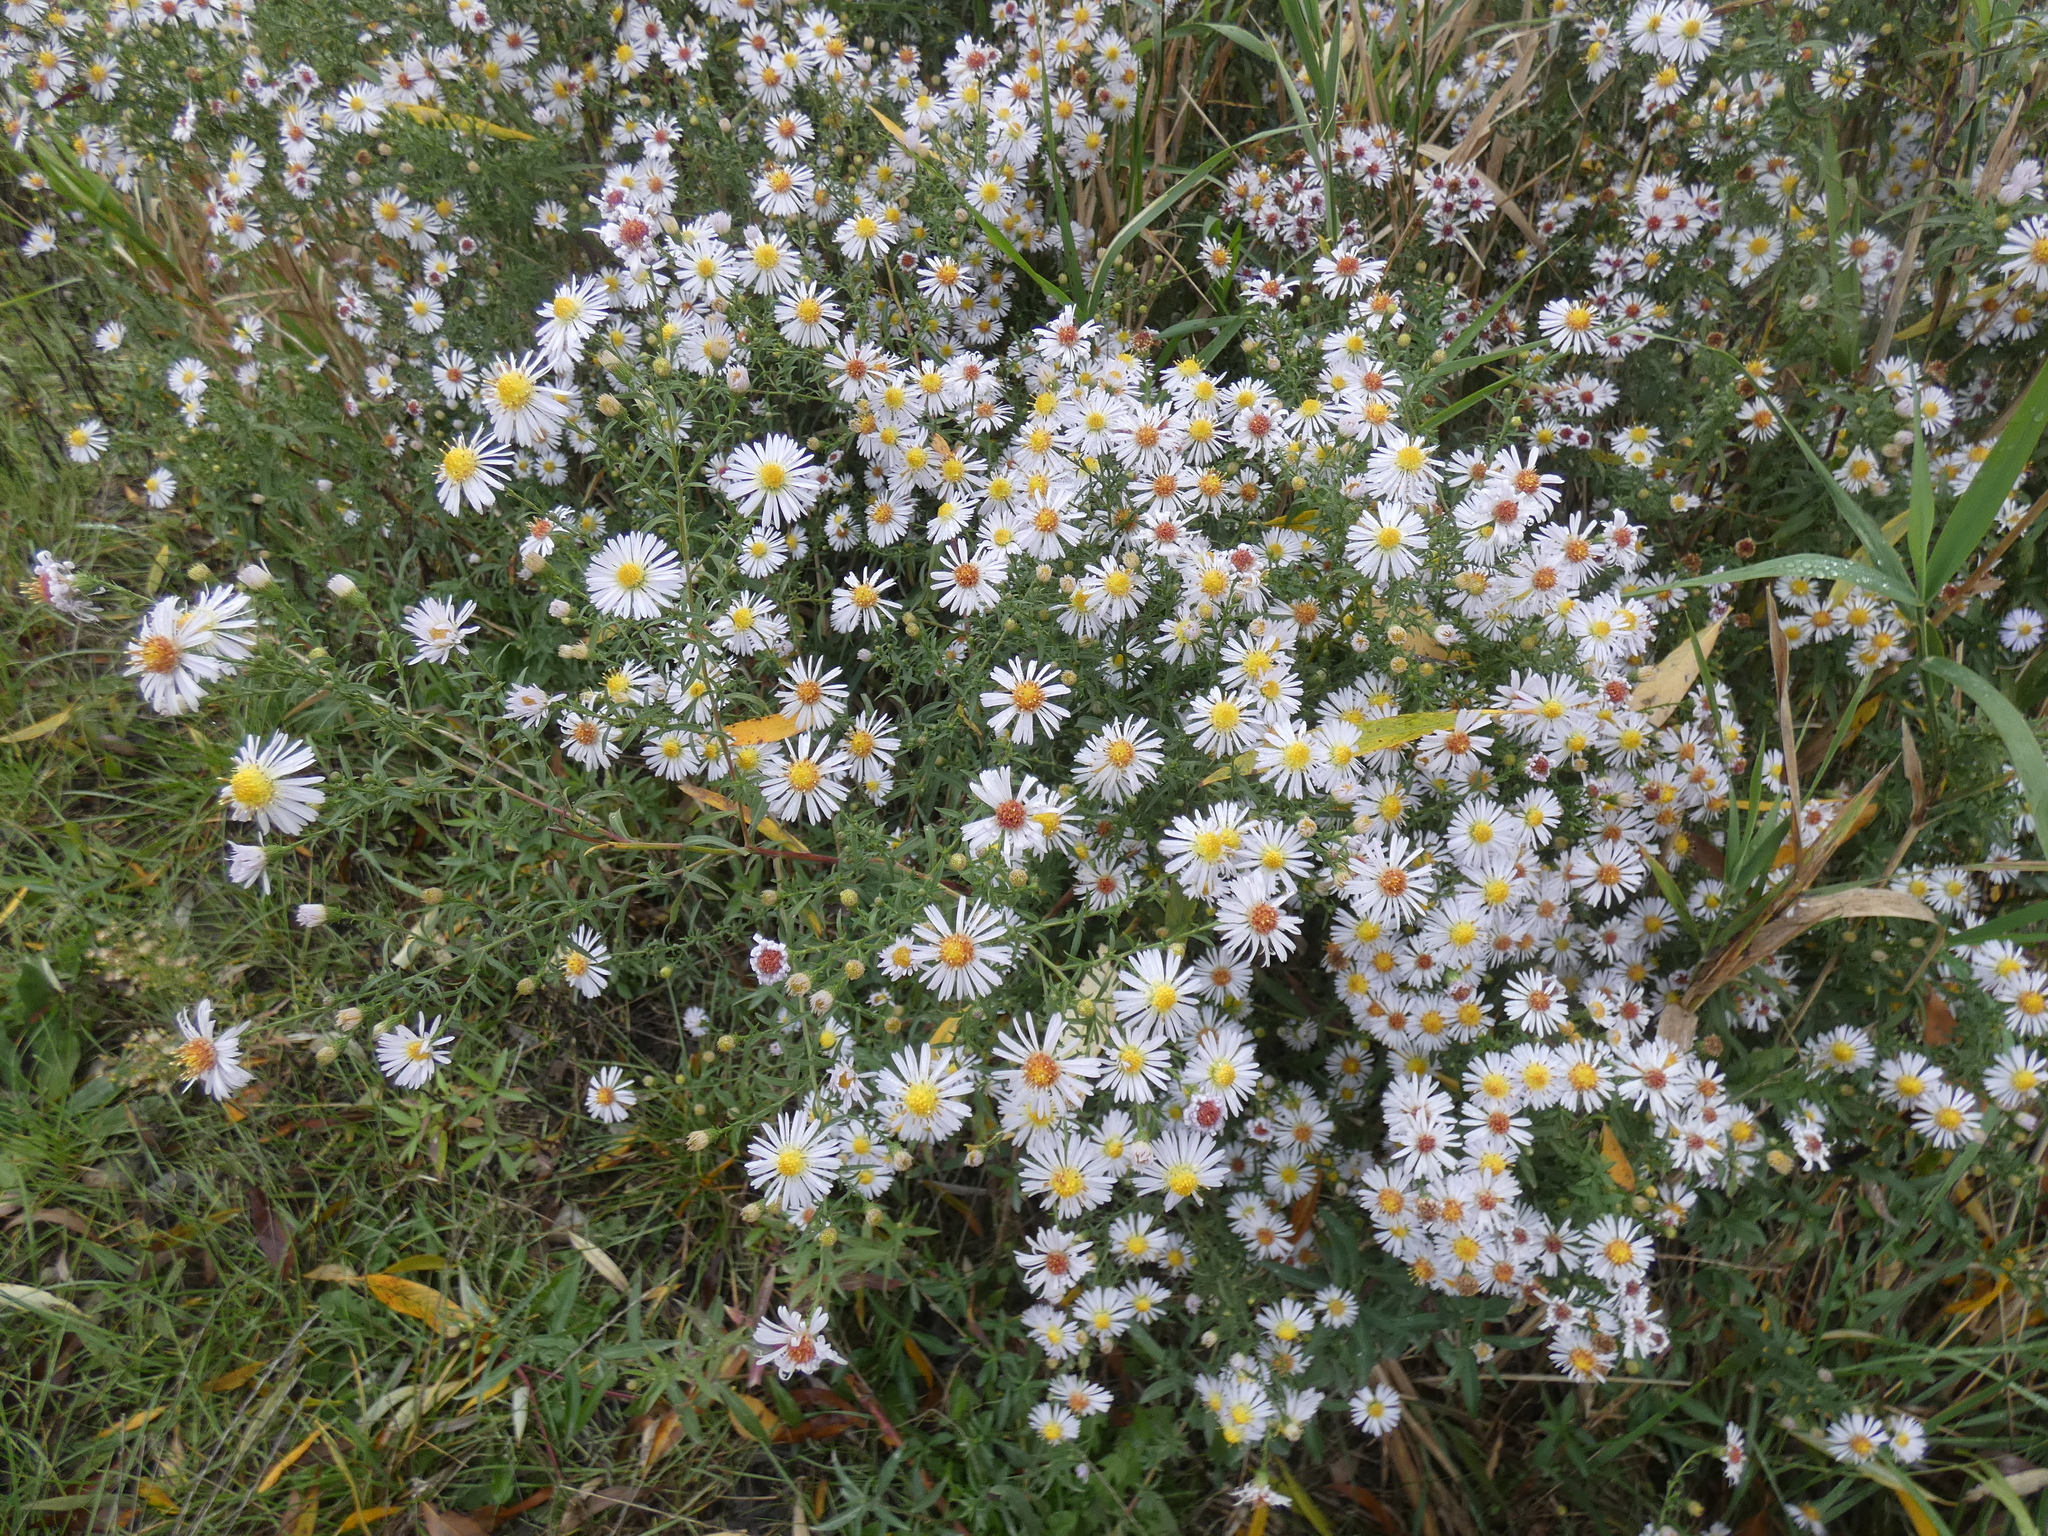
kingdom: Plantae
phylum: Tracheophyta
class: Magnoliopsida
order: Asterales
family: Asteraceae
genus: Symphyotrichum
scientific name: Symphyotrichum lanceolatum
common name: Panicled aster
